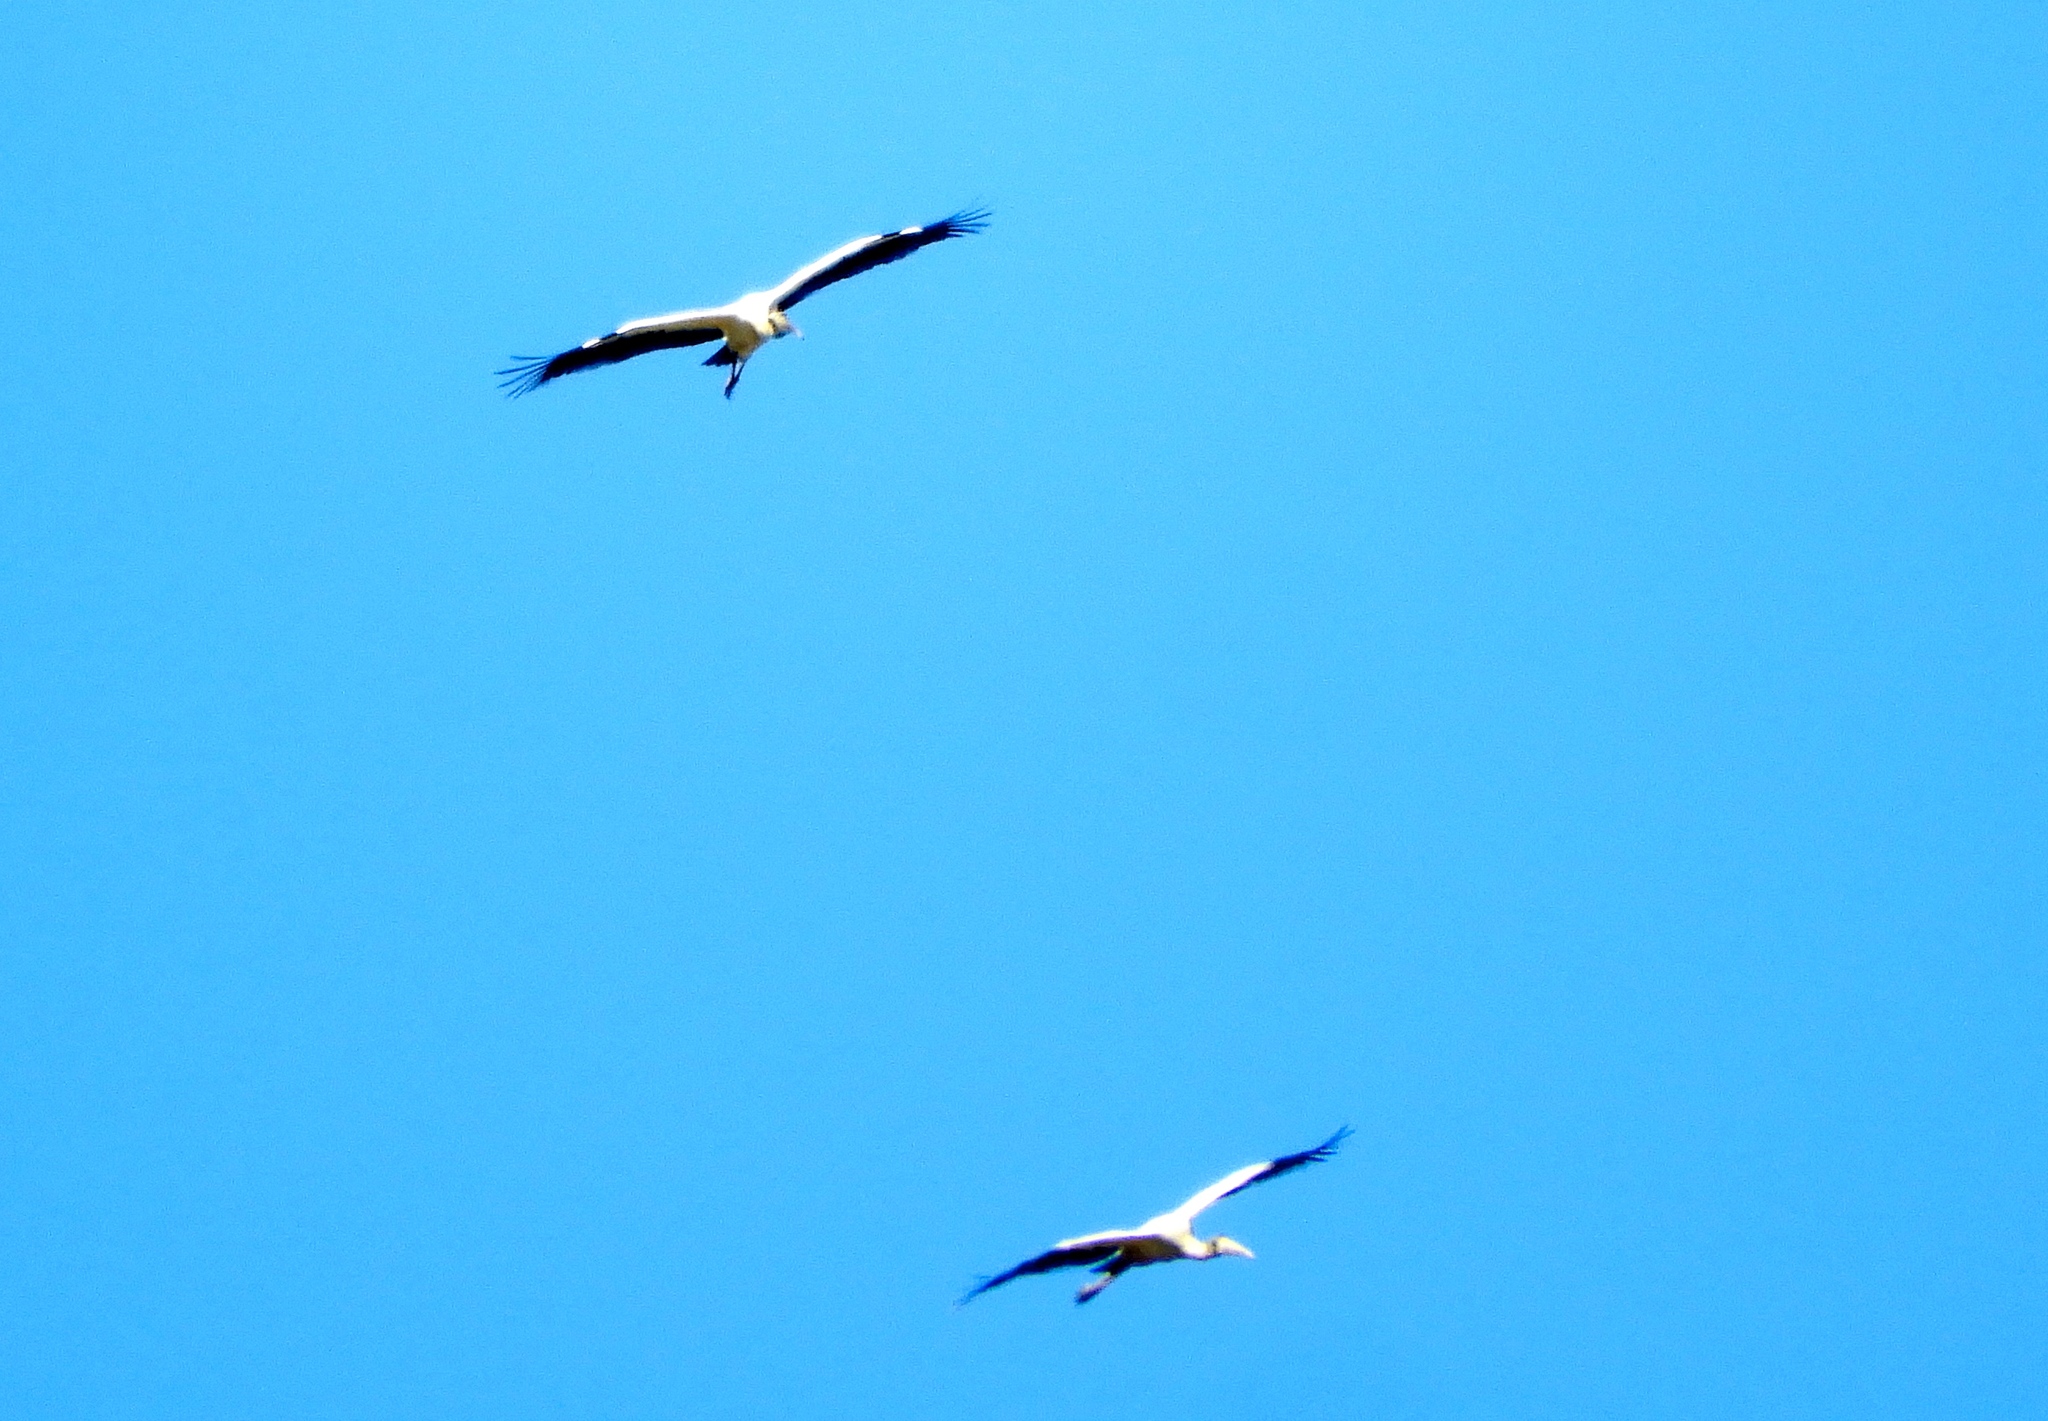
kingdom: Animalia
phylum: Chordata
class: Aves
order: Ciconiiformes
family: Ciconiidae
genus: Mycteria
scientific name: Mycteria americana
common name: Wood stork
